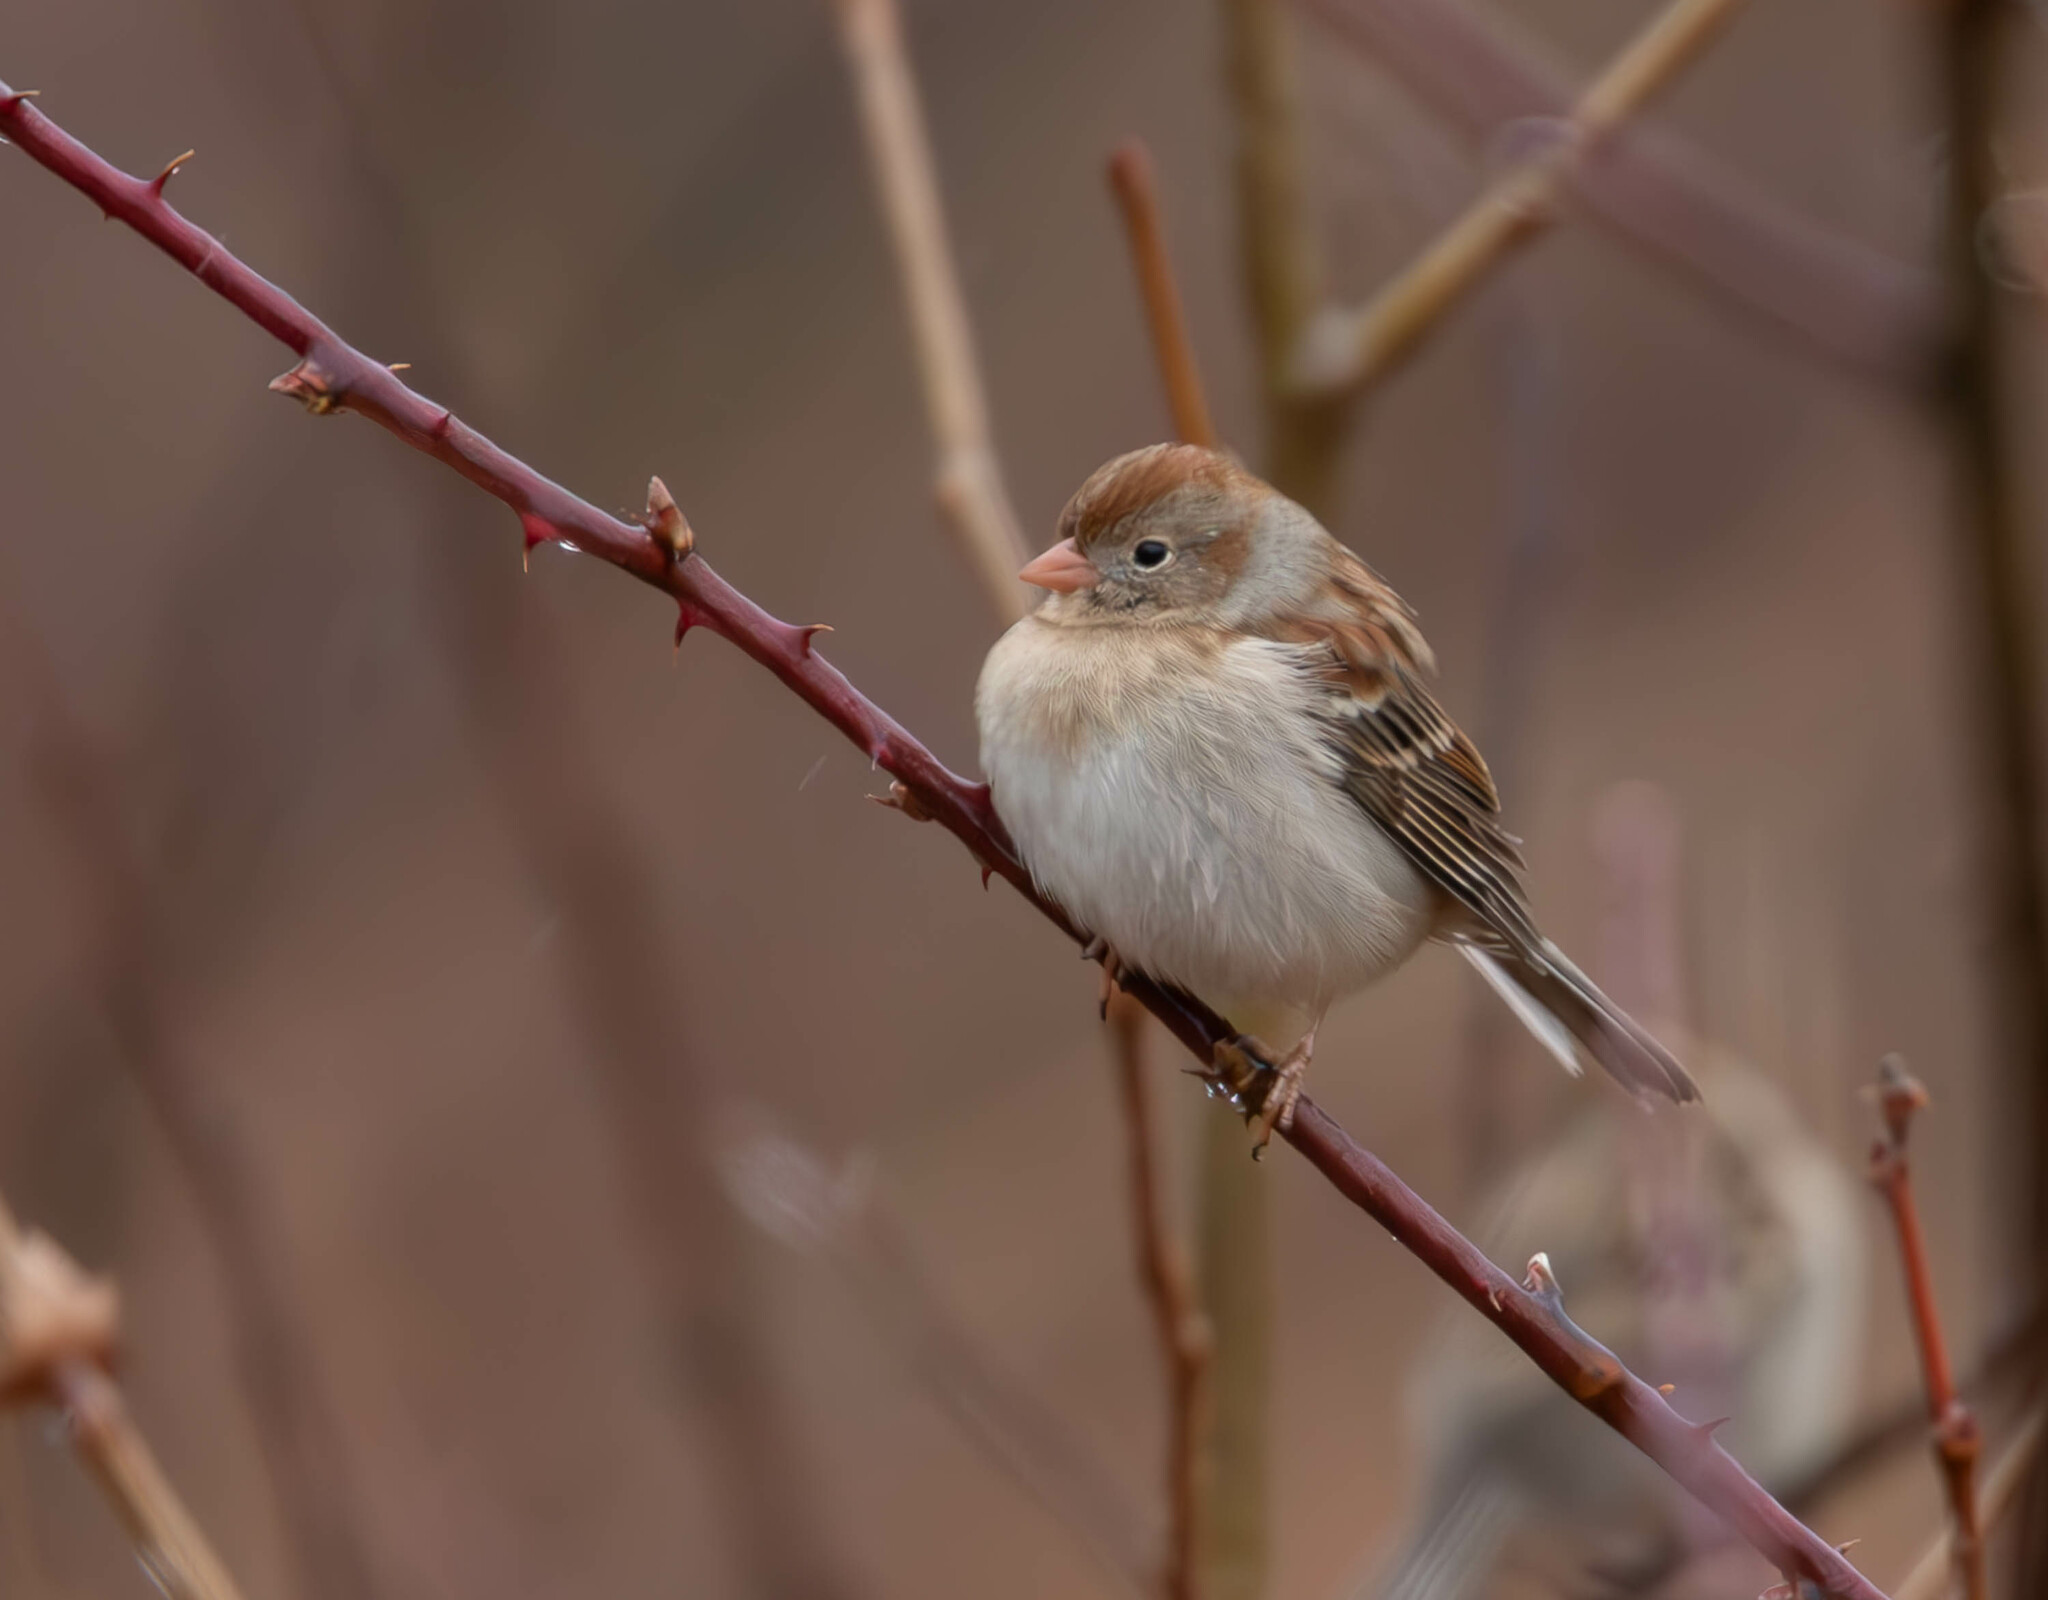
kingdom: Animalia
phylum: Chordata
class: Aves
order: Passeriformes
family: Passerellidae
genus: Spizella
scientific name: Spizella pusilla
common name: Field sparrow
